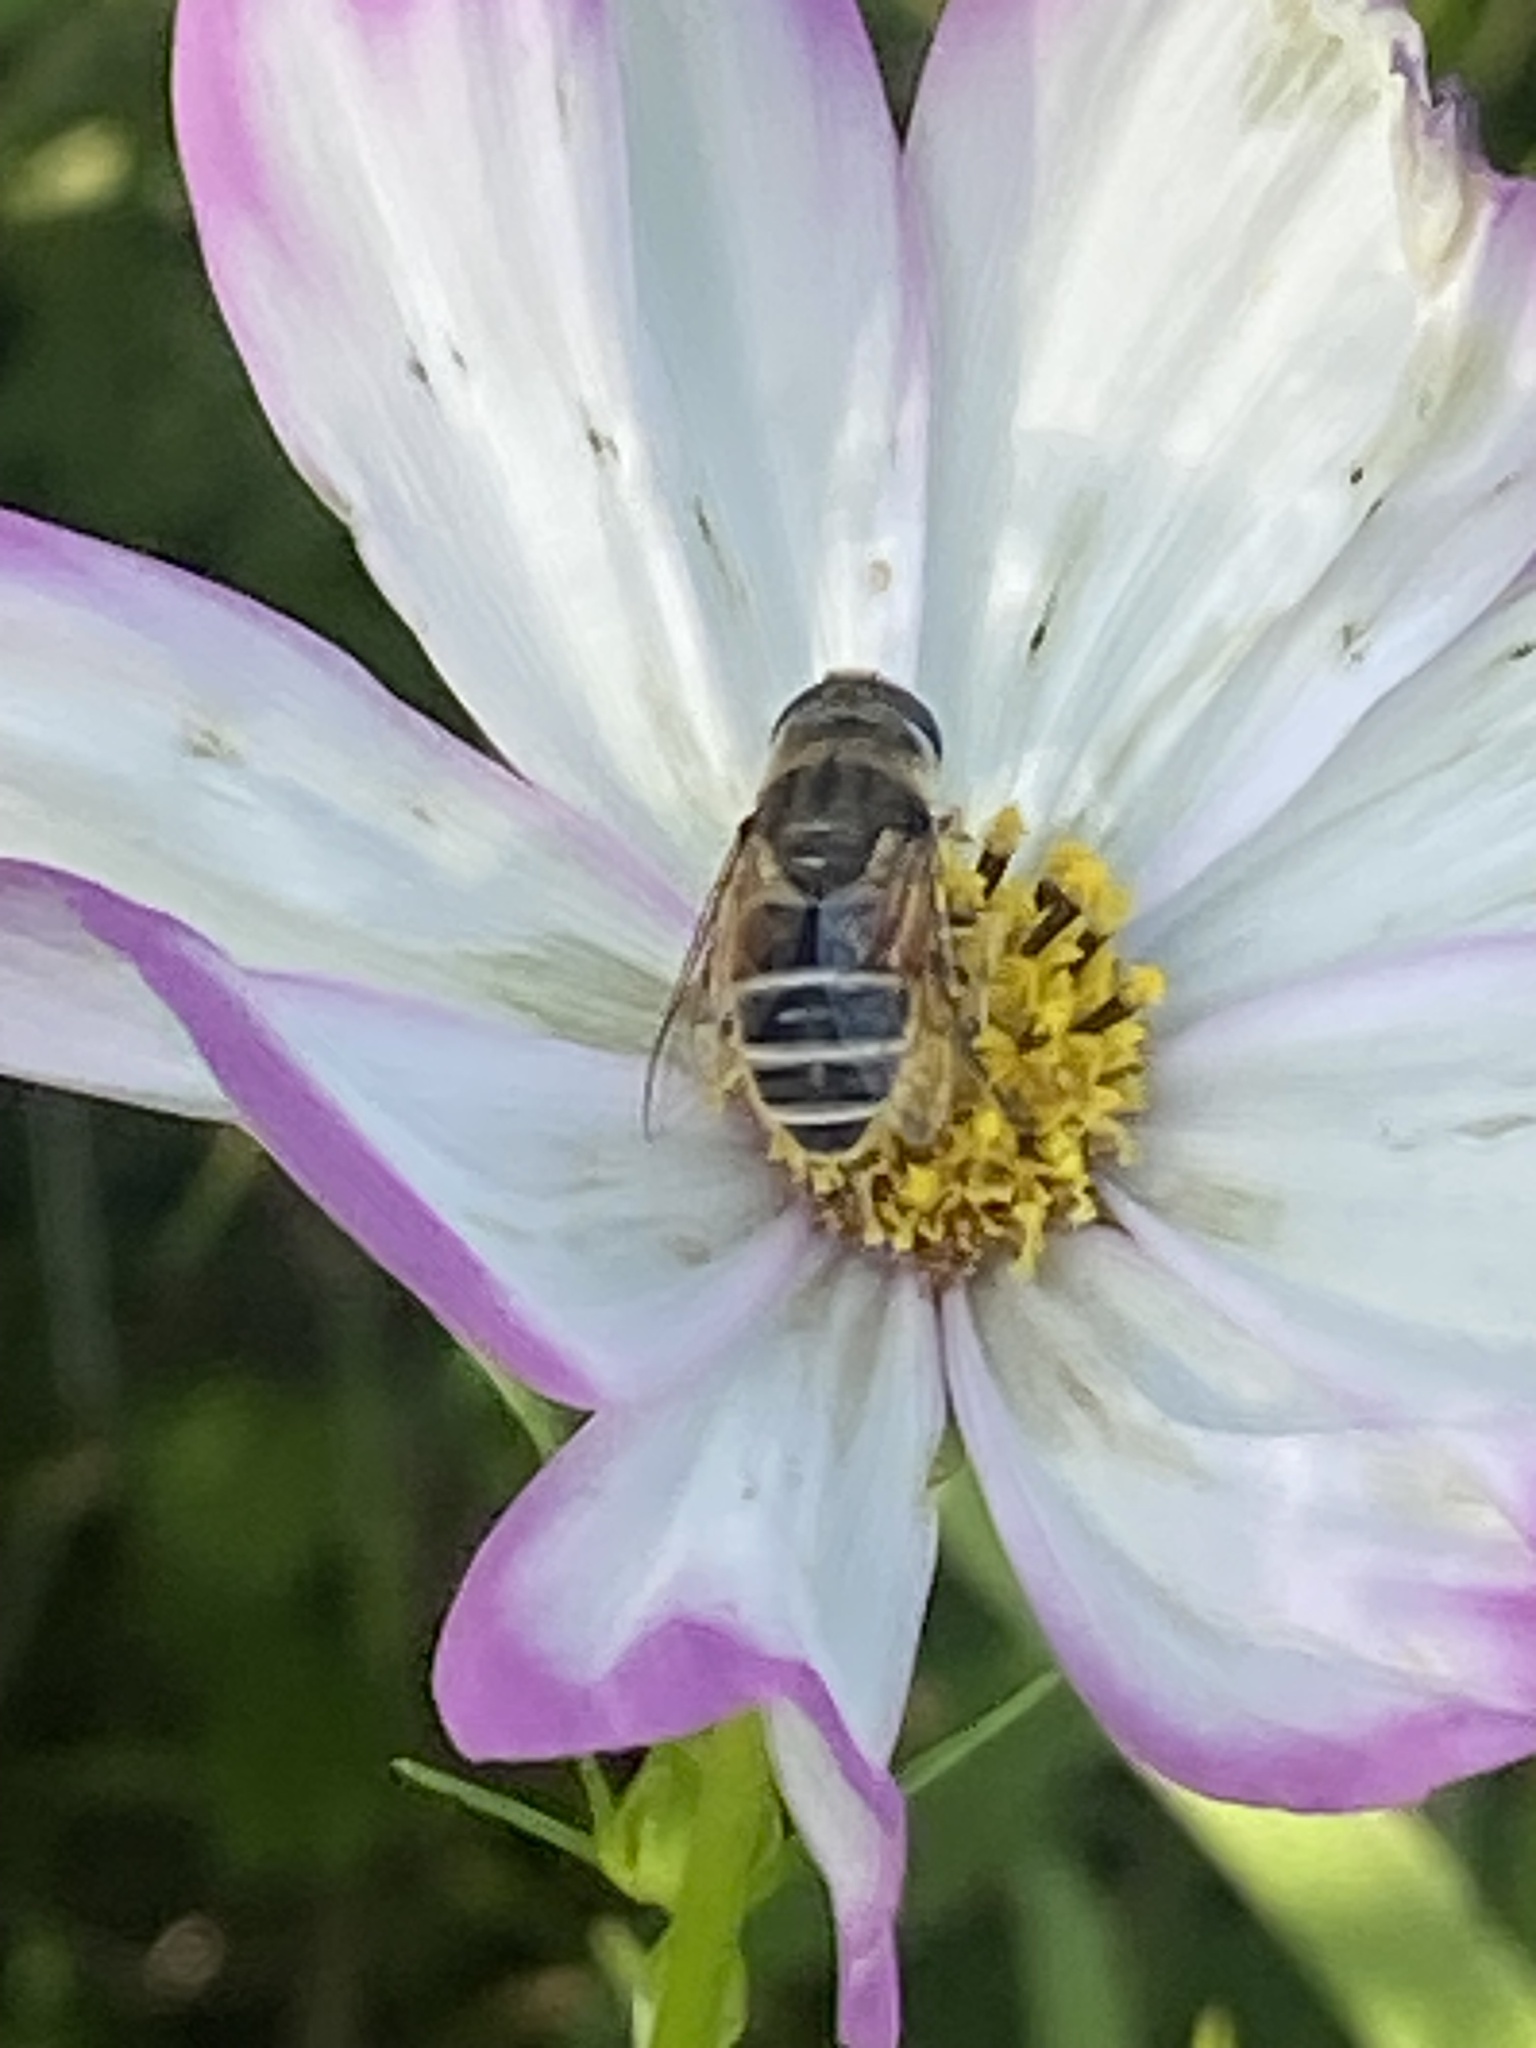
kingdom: Animalia
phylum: Arthropoda
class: Insecta
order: Diptera
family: Syrphidae
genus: Eristalis
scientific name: Eristalis arbustorum
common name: Hover fly
